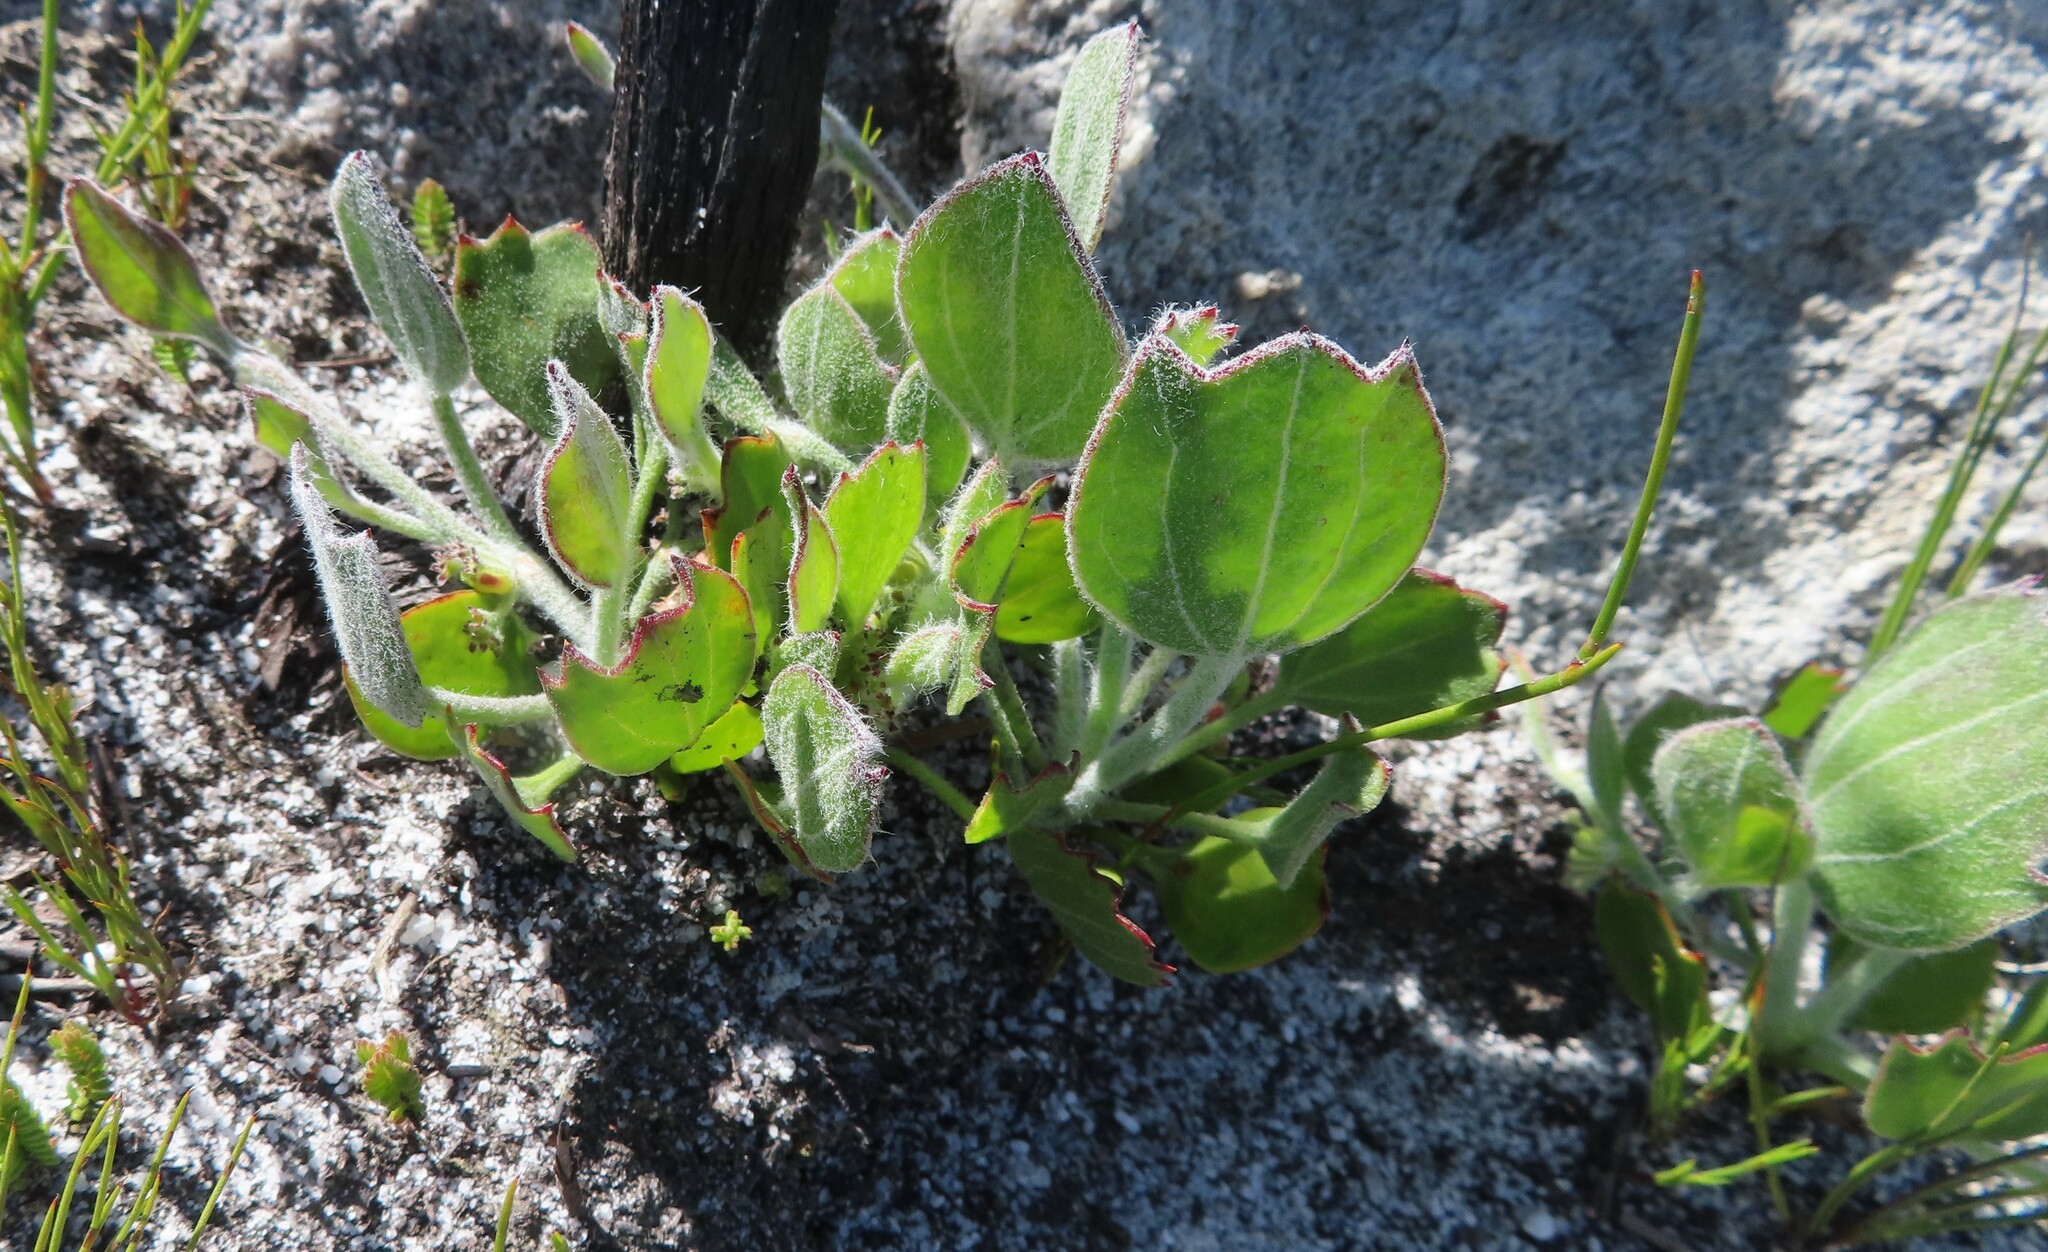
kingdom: Plantae
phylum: Tracheophyta
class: Magnoliopsida
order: Apiales
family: Apiaceae
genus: Centella
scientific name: Centella difformis
